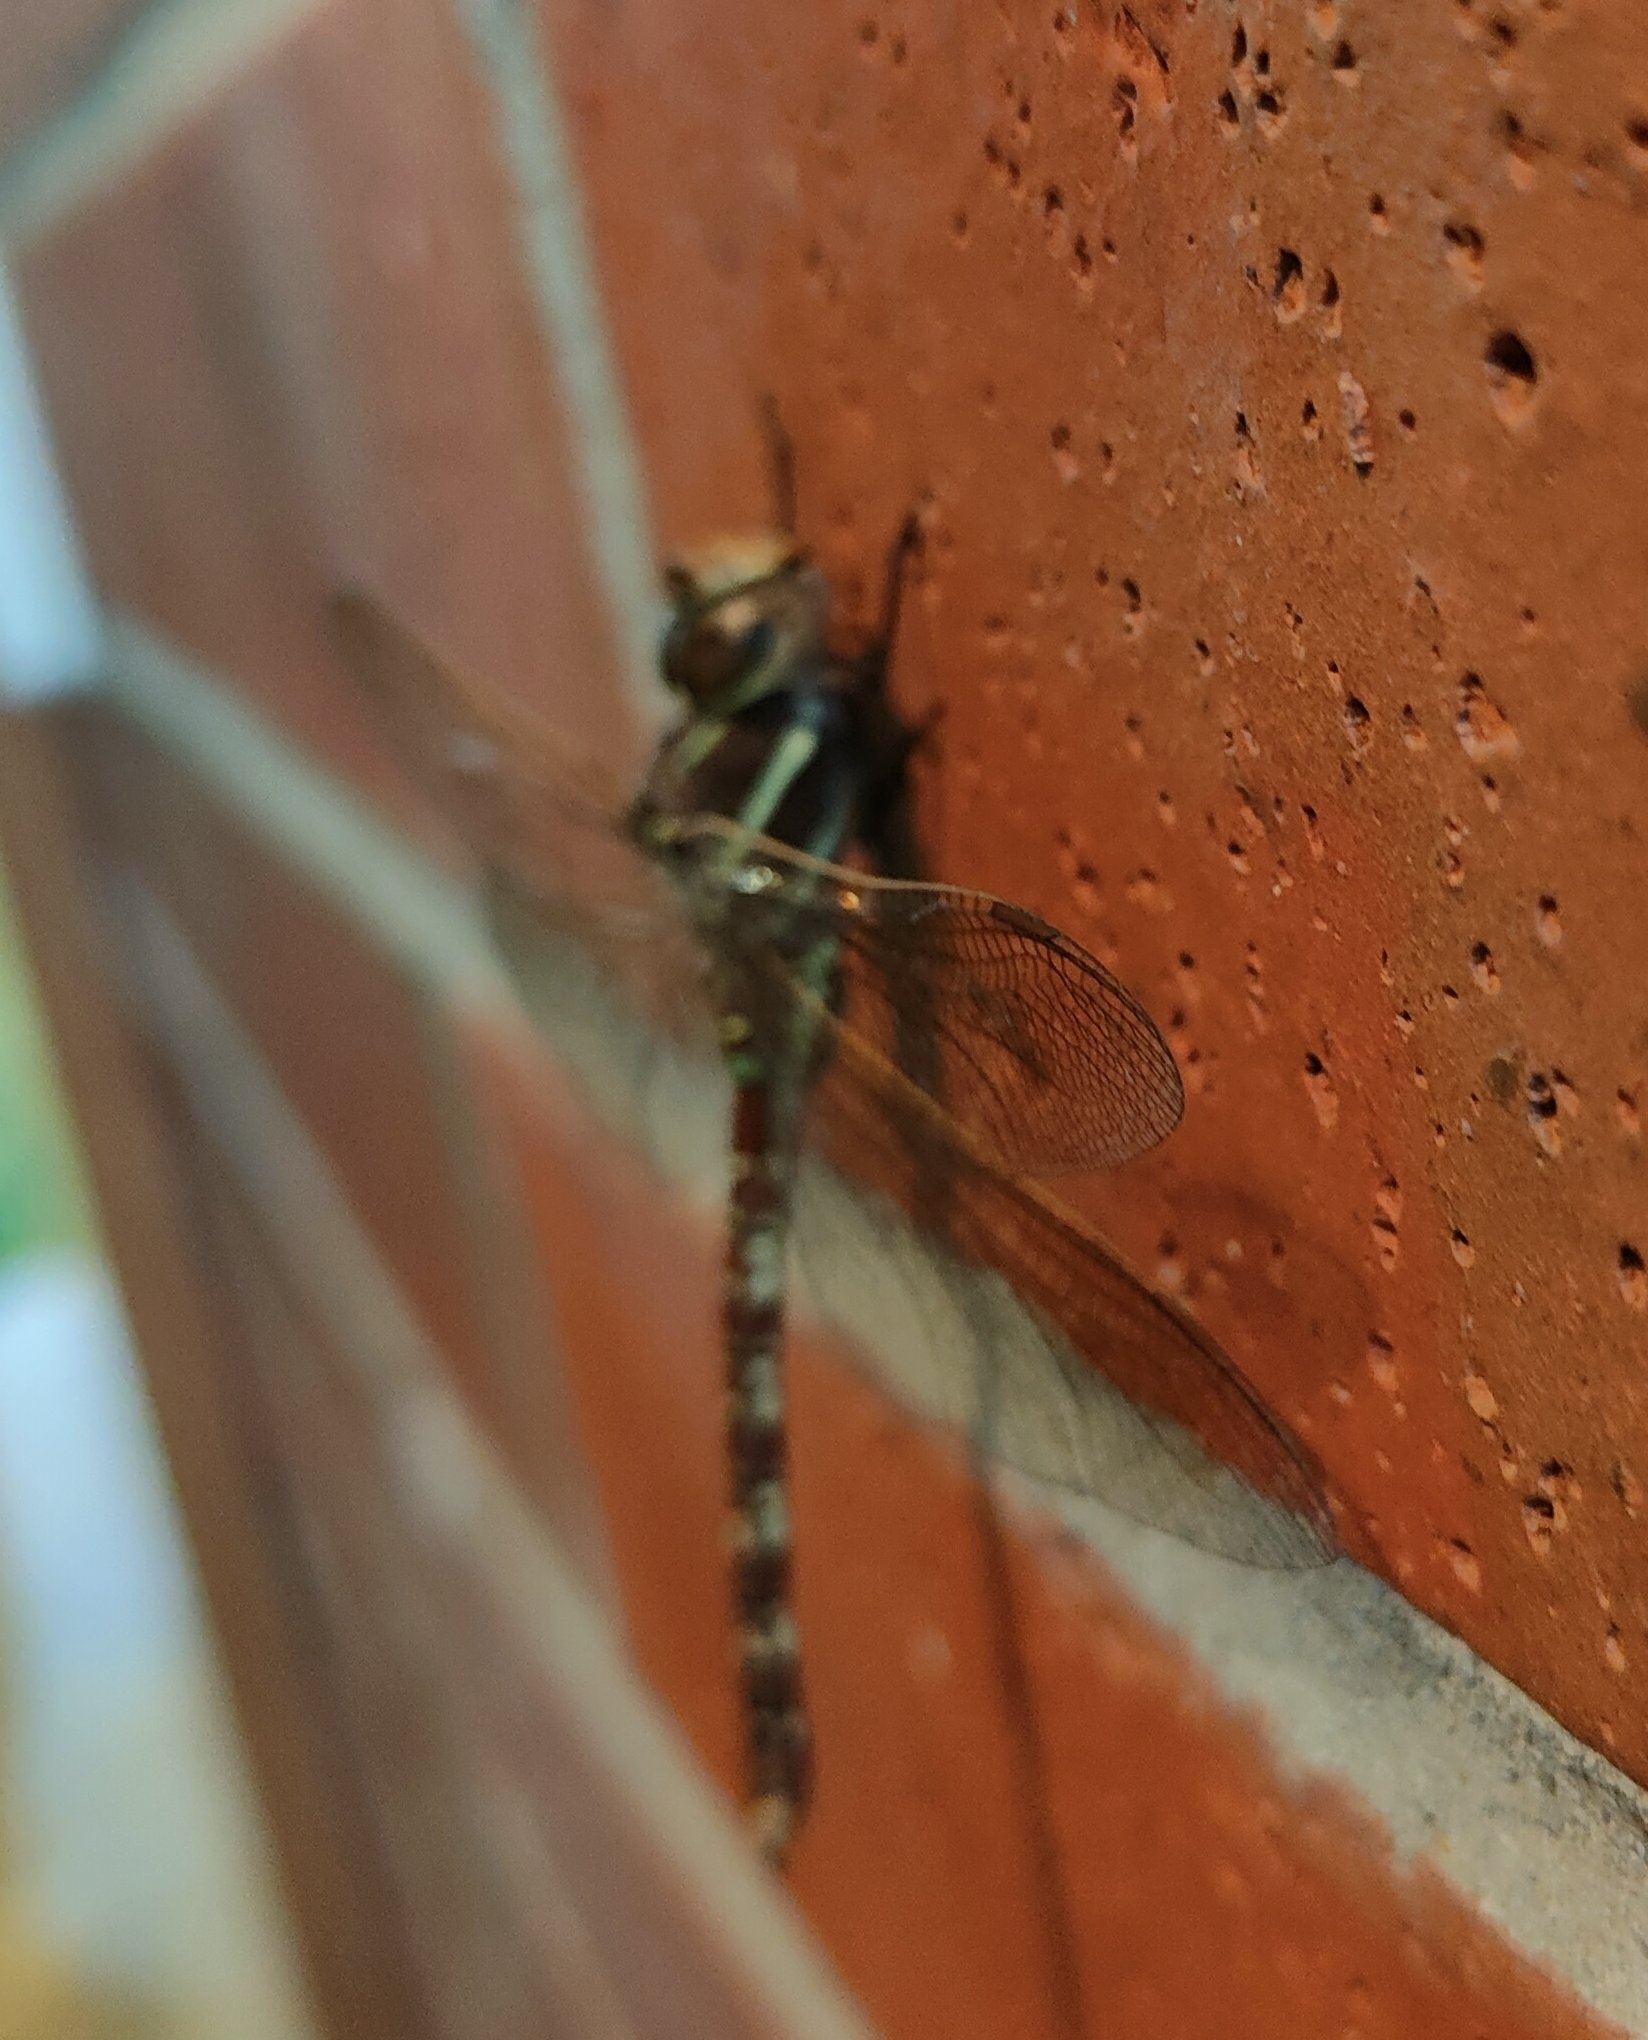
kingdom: Animalia
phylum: Arthropoda
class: Insecta
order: Odonata
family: Aeshnidae
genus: Aeshna
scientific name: Aeshna brevistyla
